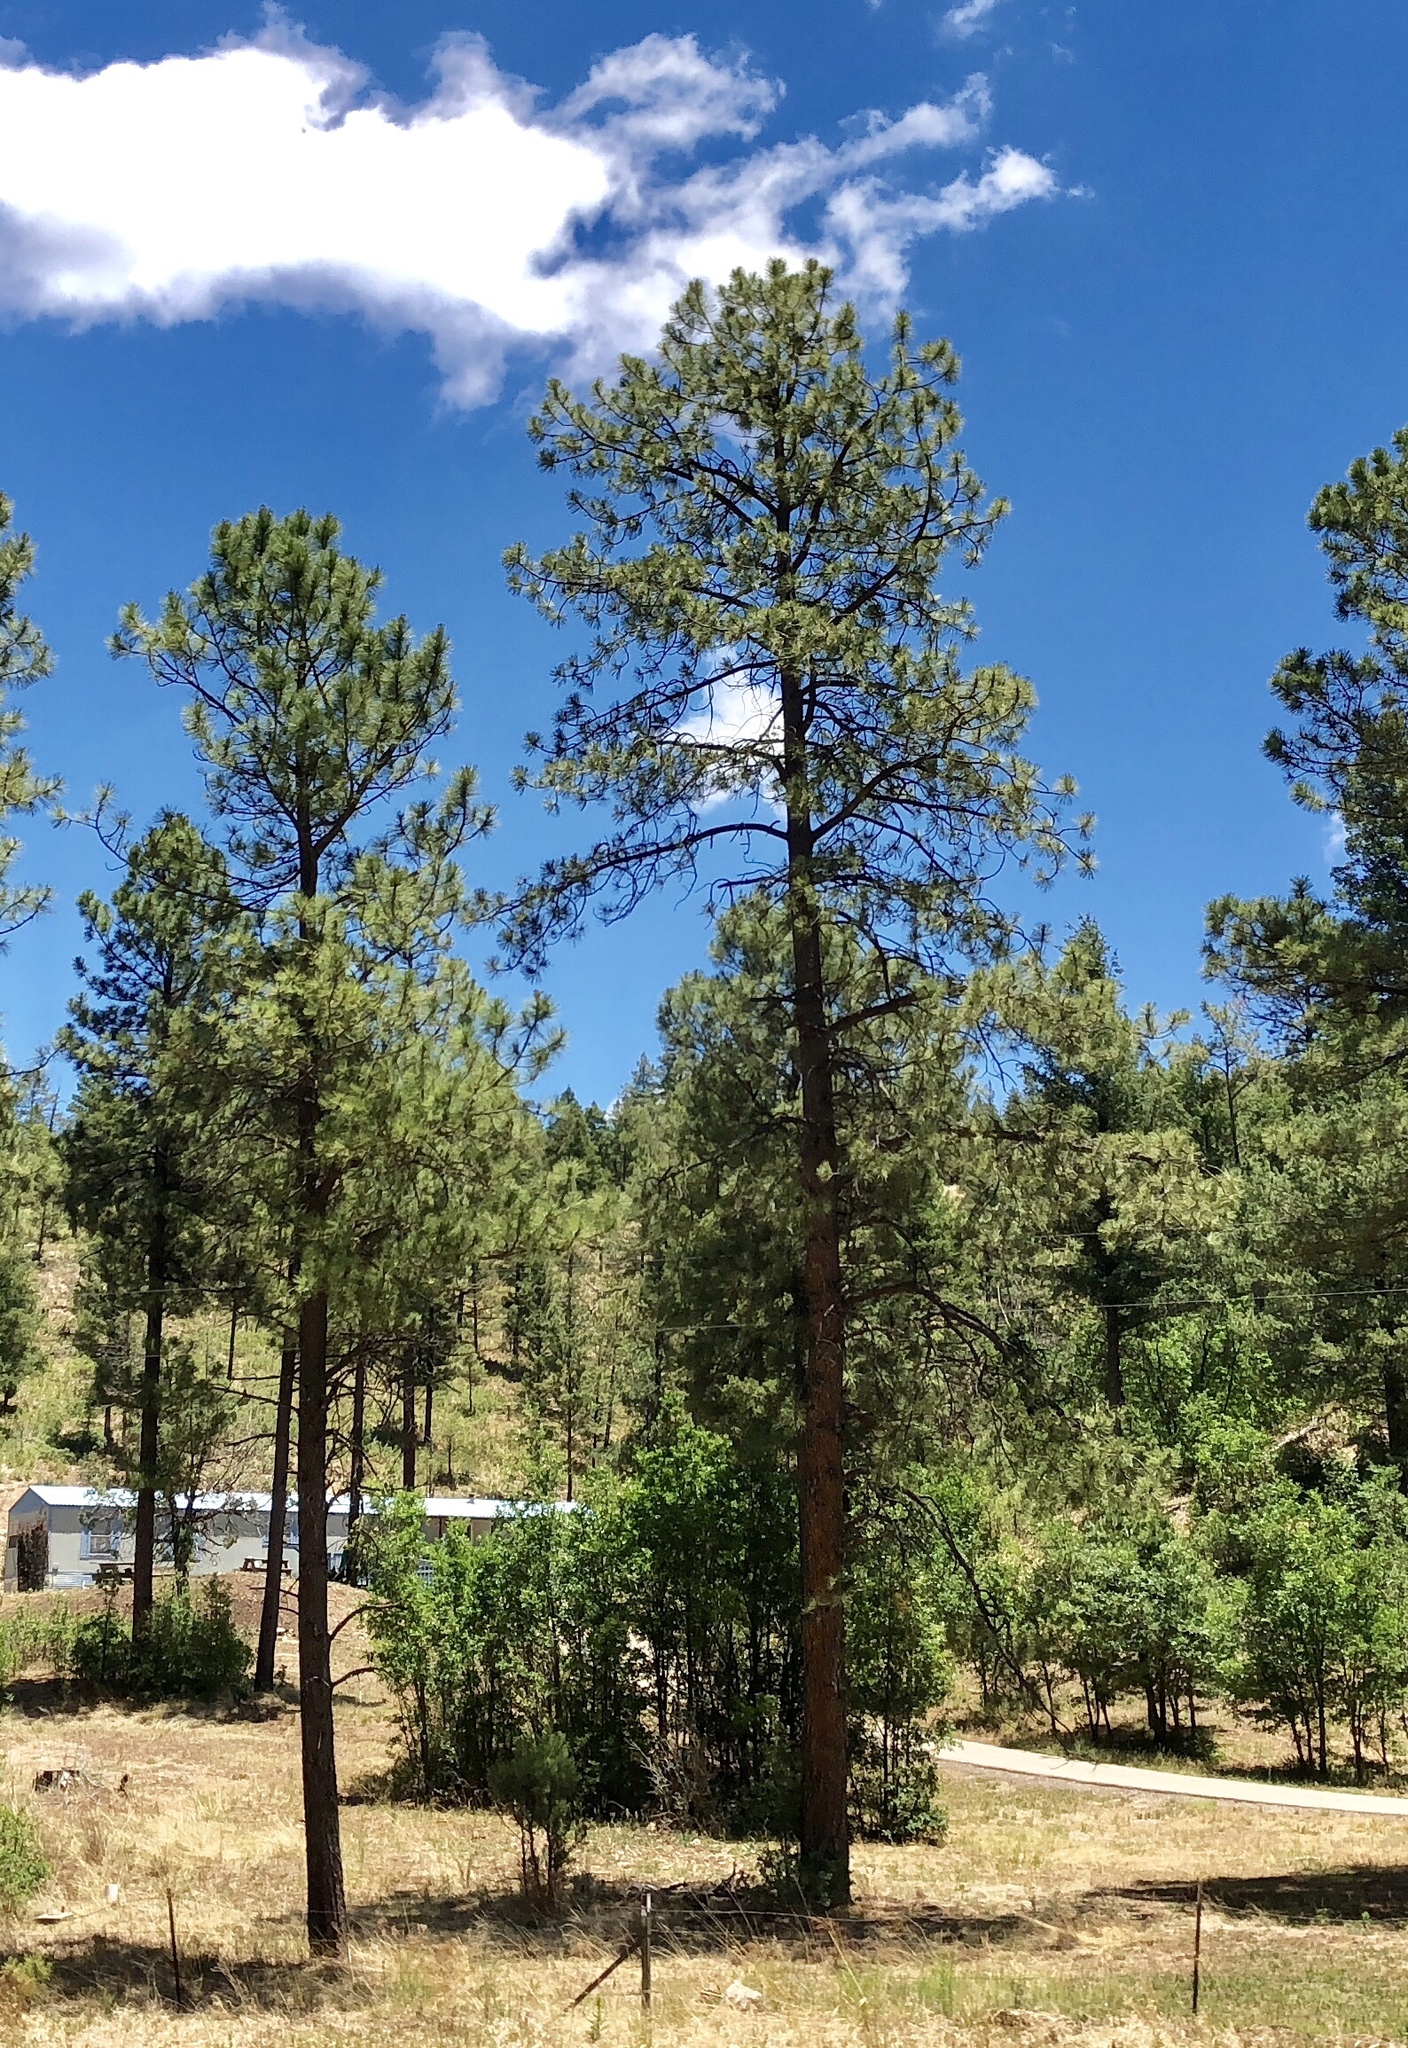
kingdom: Plantae
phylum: Tracheophyta
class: Pinopsida
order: Pinales
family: Pinaceae
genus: Pinus
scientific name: Pinus ponderosa
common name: Western yellow-pine
